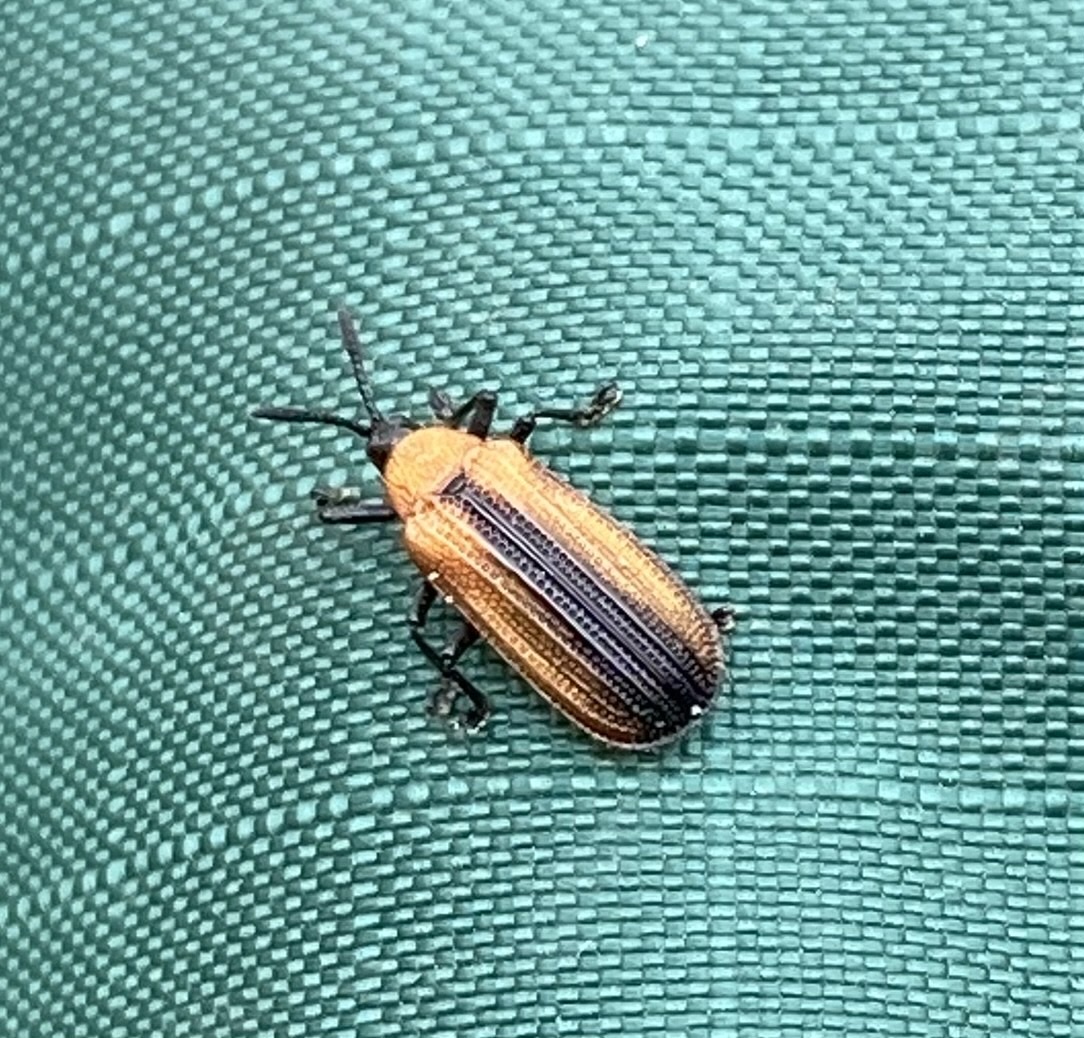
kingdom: Animalia
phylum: Arthropoda
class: Insecta
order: Coleoptera
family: Chrysomelidae
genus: Odontota
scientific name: Odontota dorsalis
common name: Locust leaf-miner beetle
